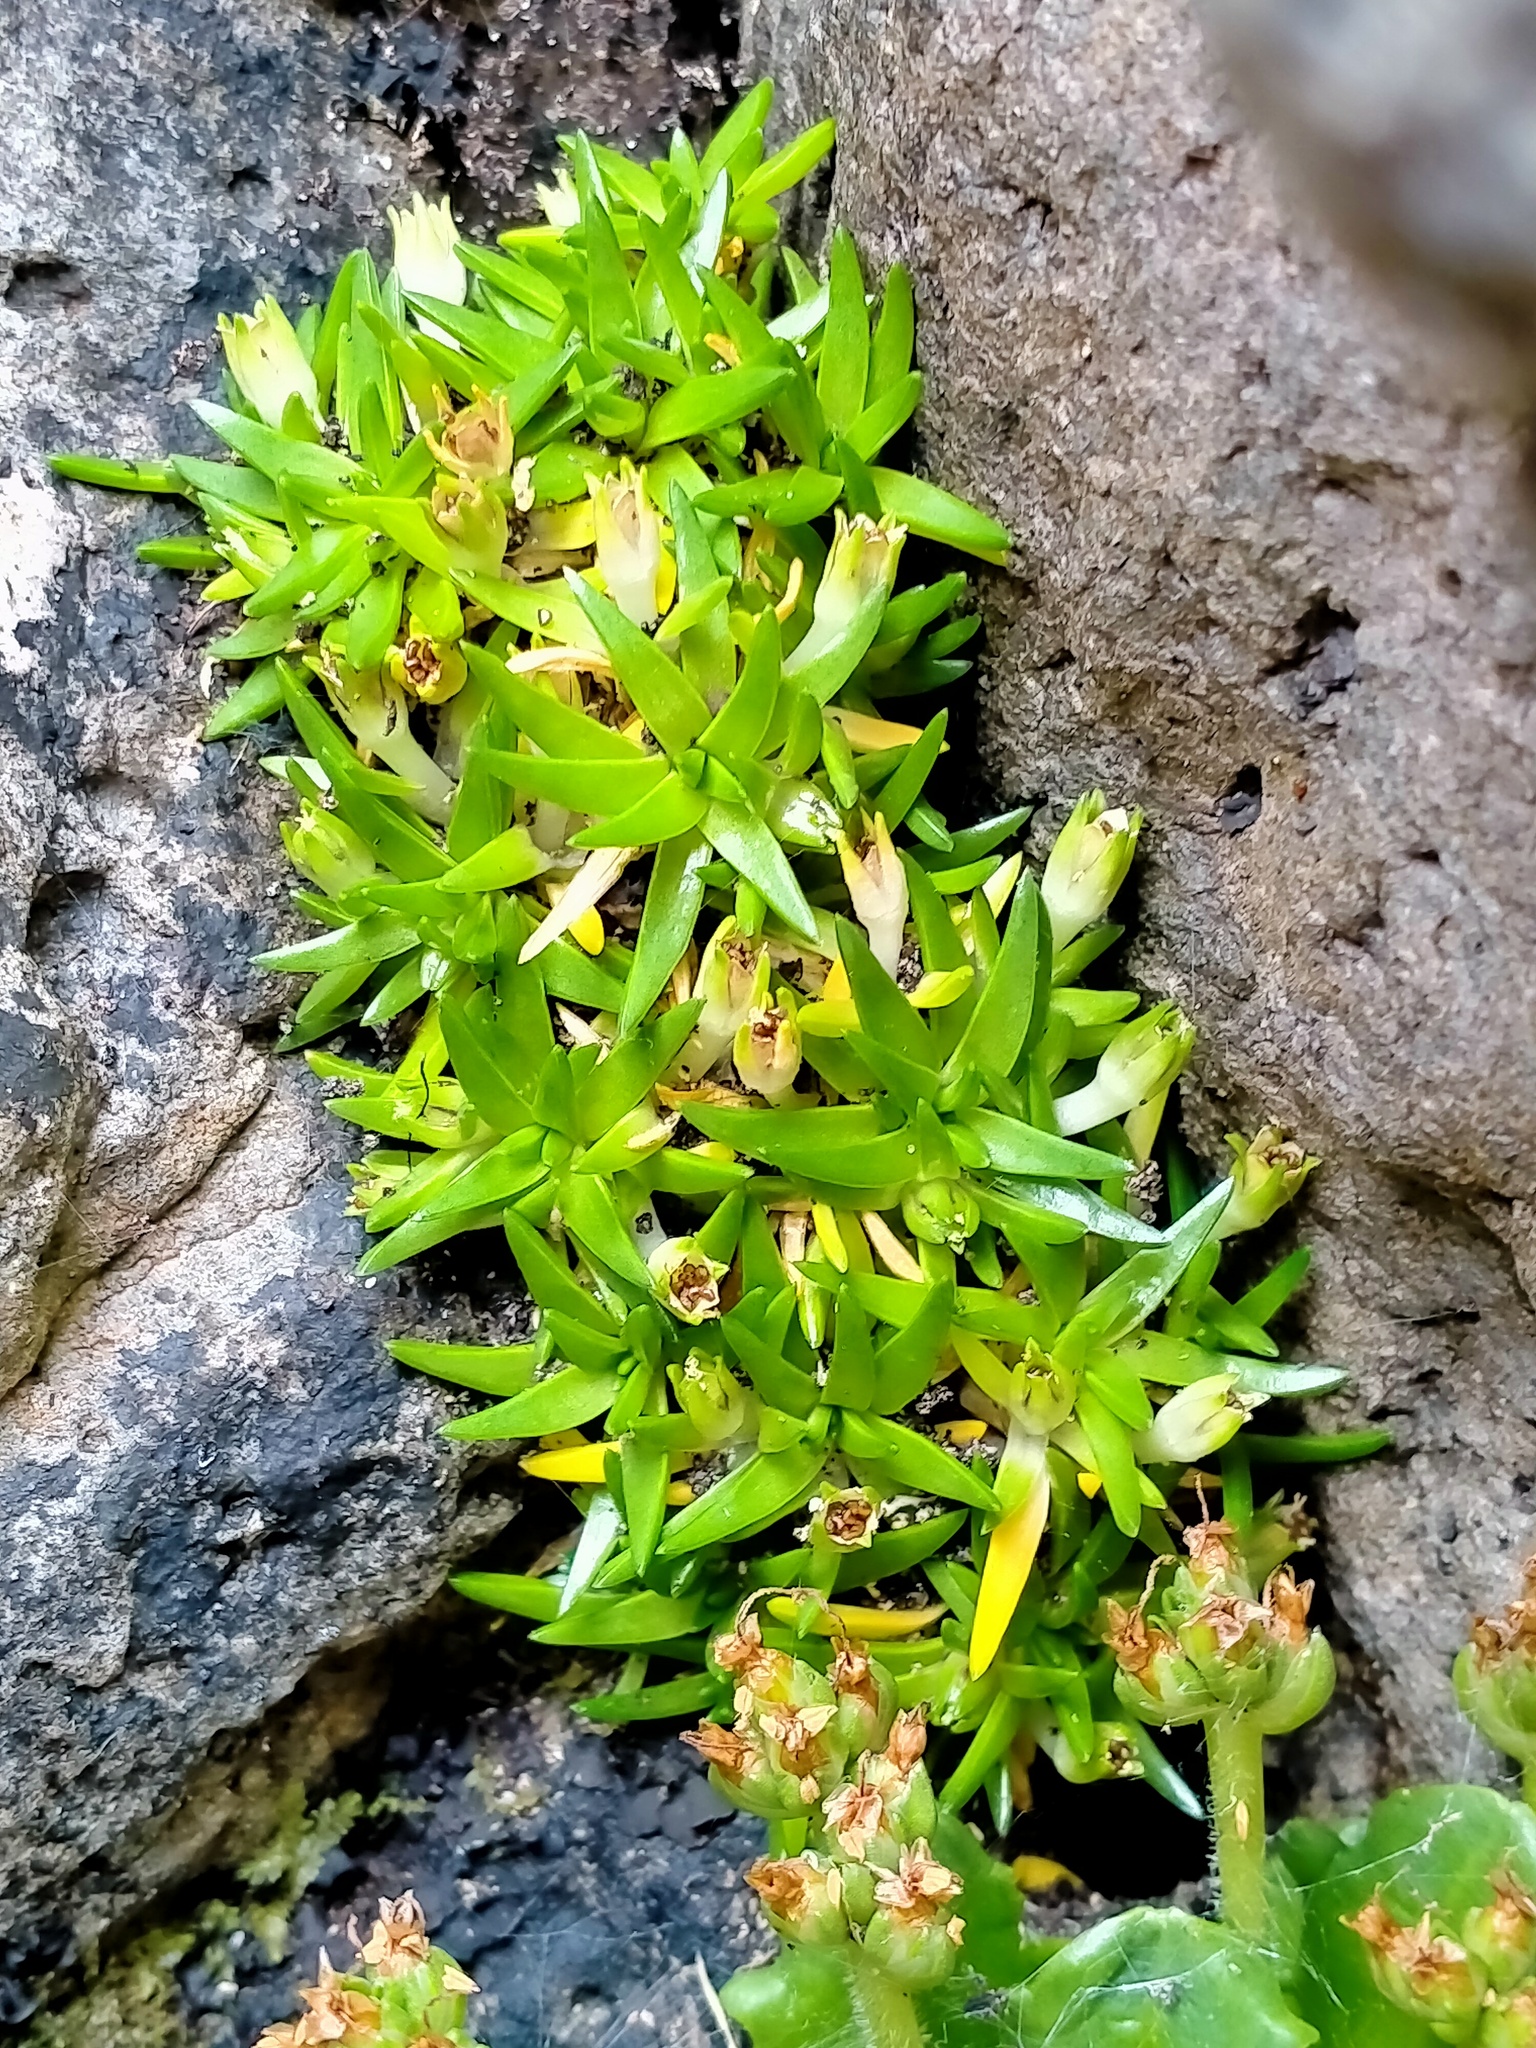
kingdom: Plantae
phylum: Tracheophyta
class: Magnoliopsida
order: Lamiales
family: Plantaginaceae
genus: Plantago
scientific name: Plantago brownii
